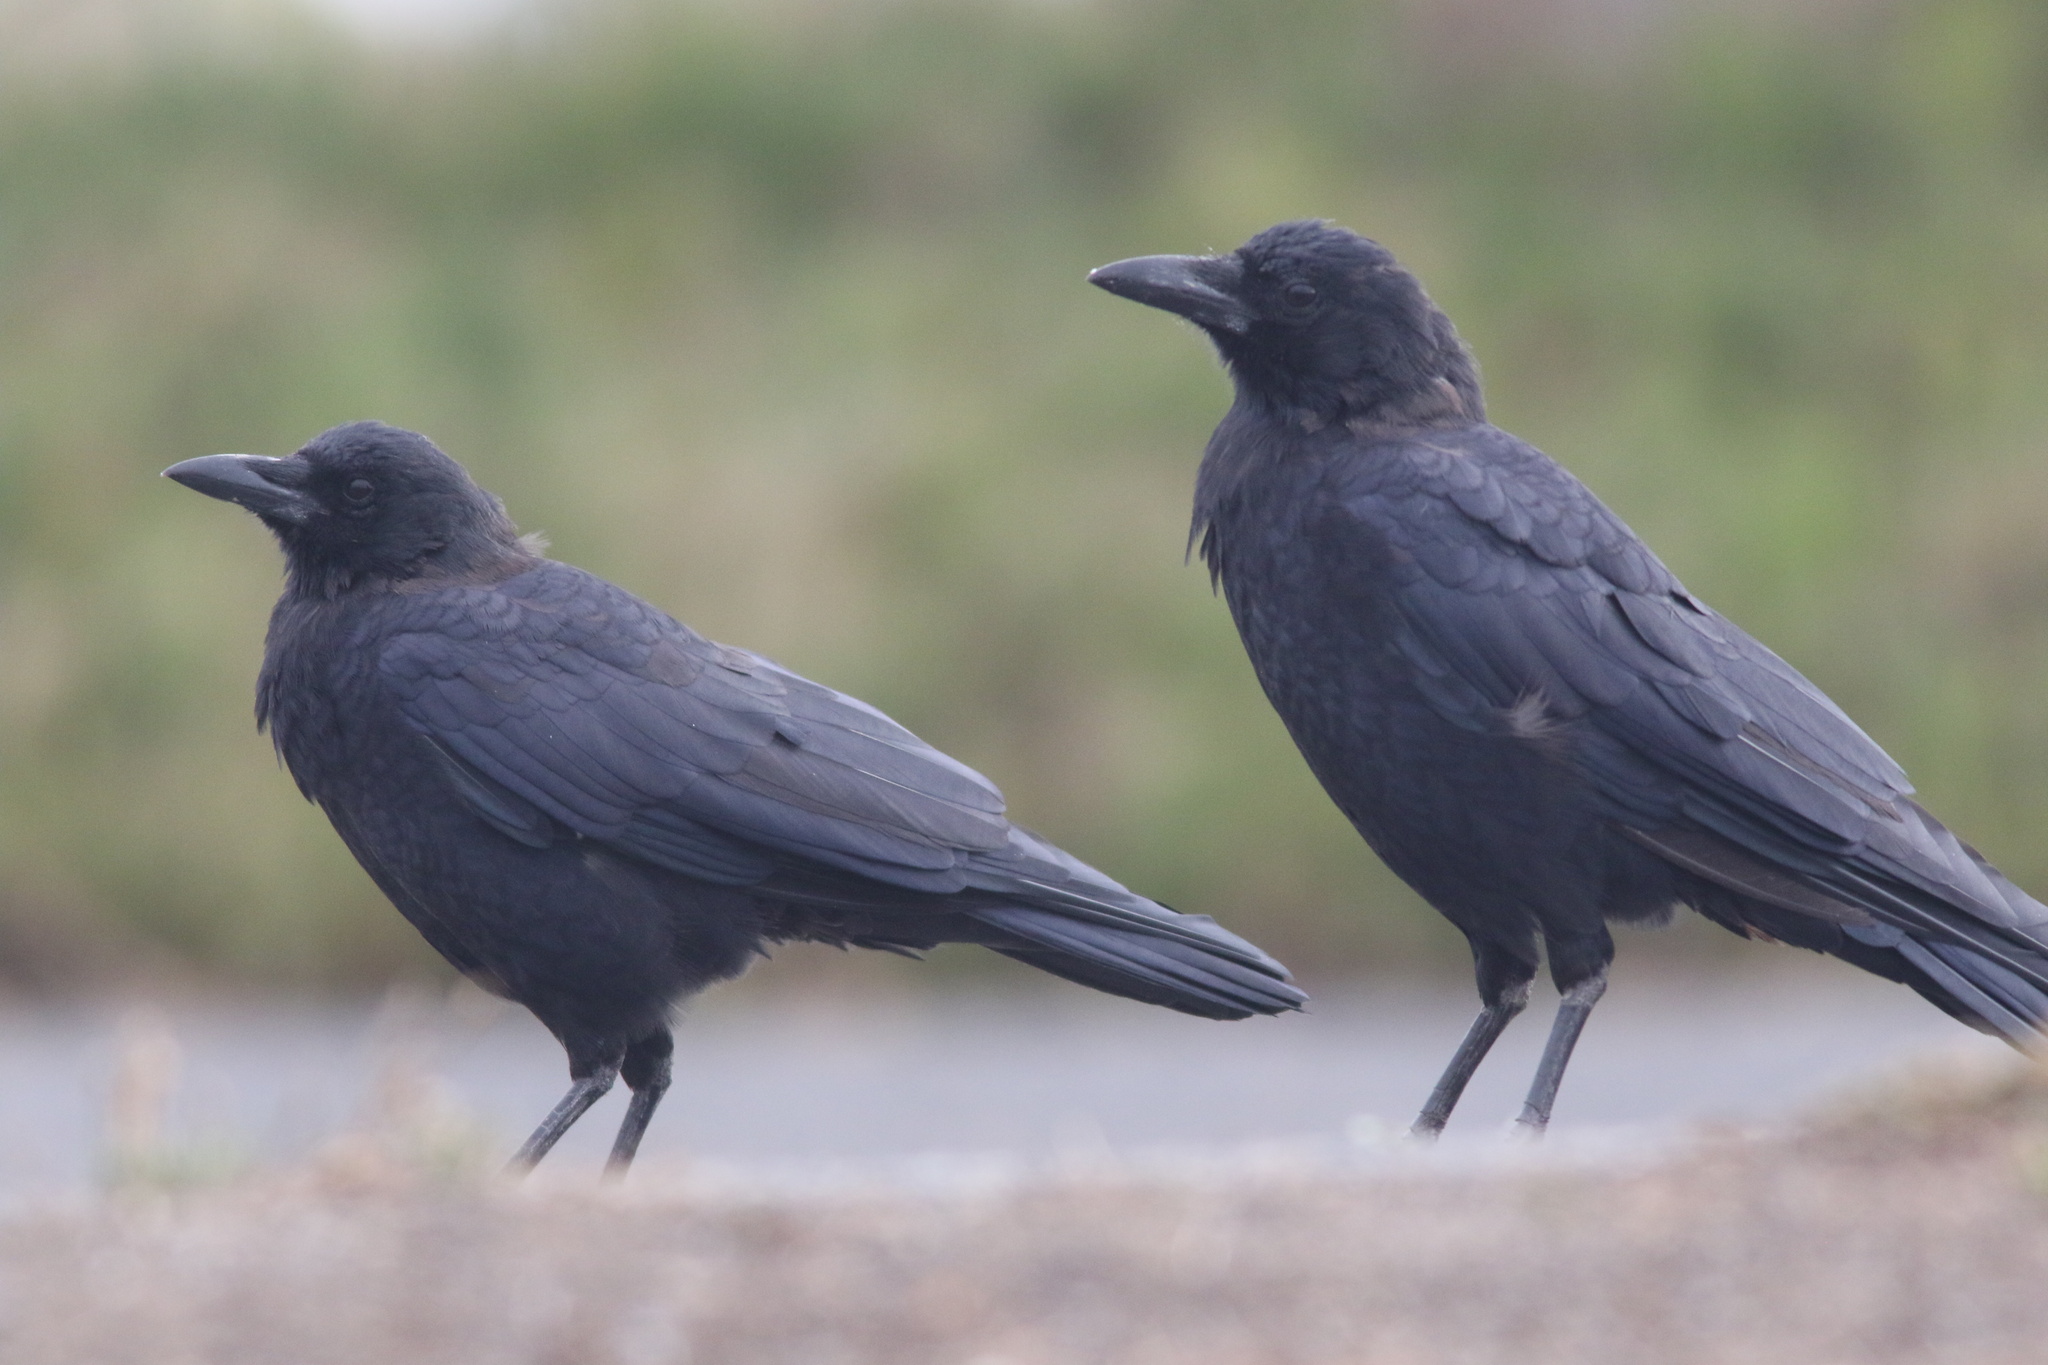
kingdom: Animalia
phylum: Chordata
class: Aves
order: Passeriformes
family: Corvidae
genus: Corvus
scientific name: Corvus brachyrhynchos
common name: American crow
